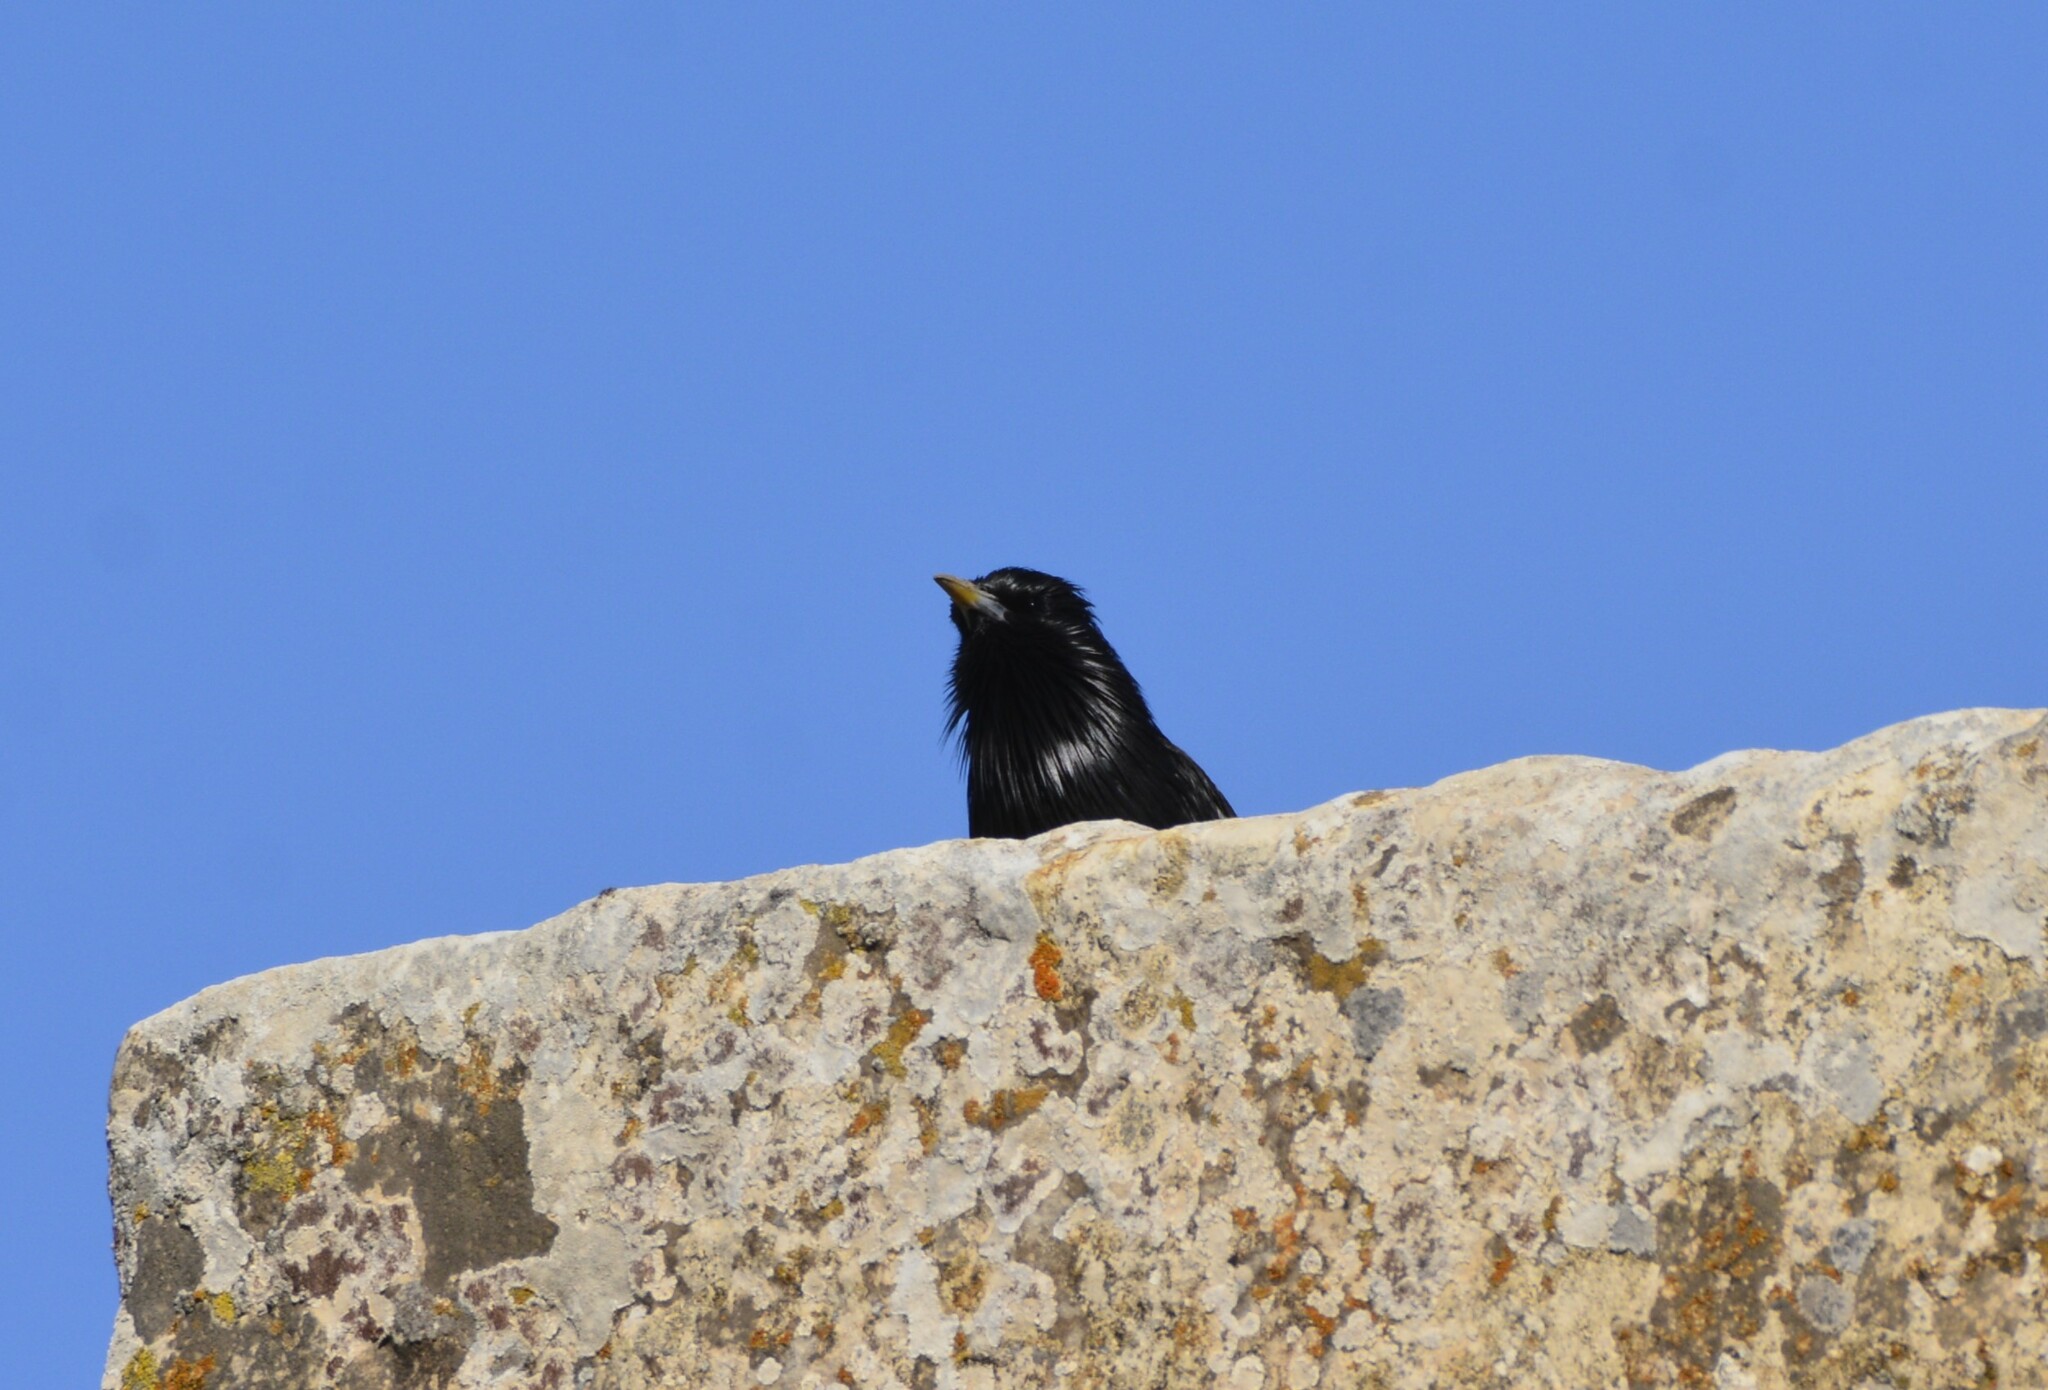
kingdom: Animalia
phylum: Chordata
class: Aves
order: Passeriformes
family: Sturnidae
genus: Sturnus
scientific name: Sturnus unicolor
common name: Spotless starling
